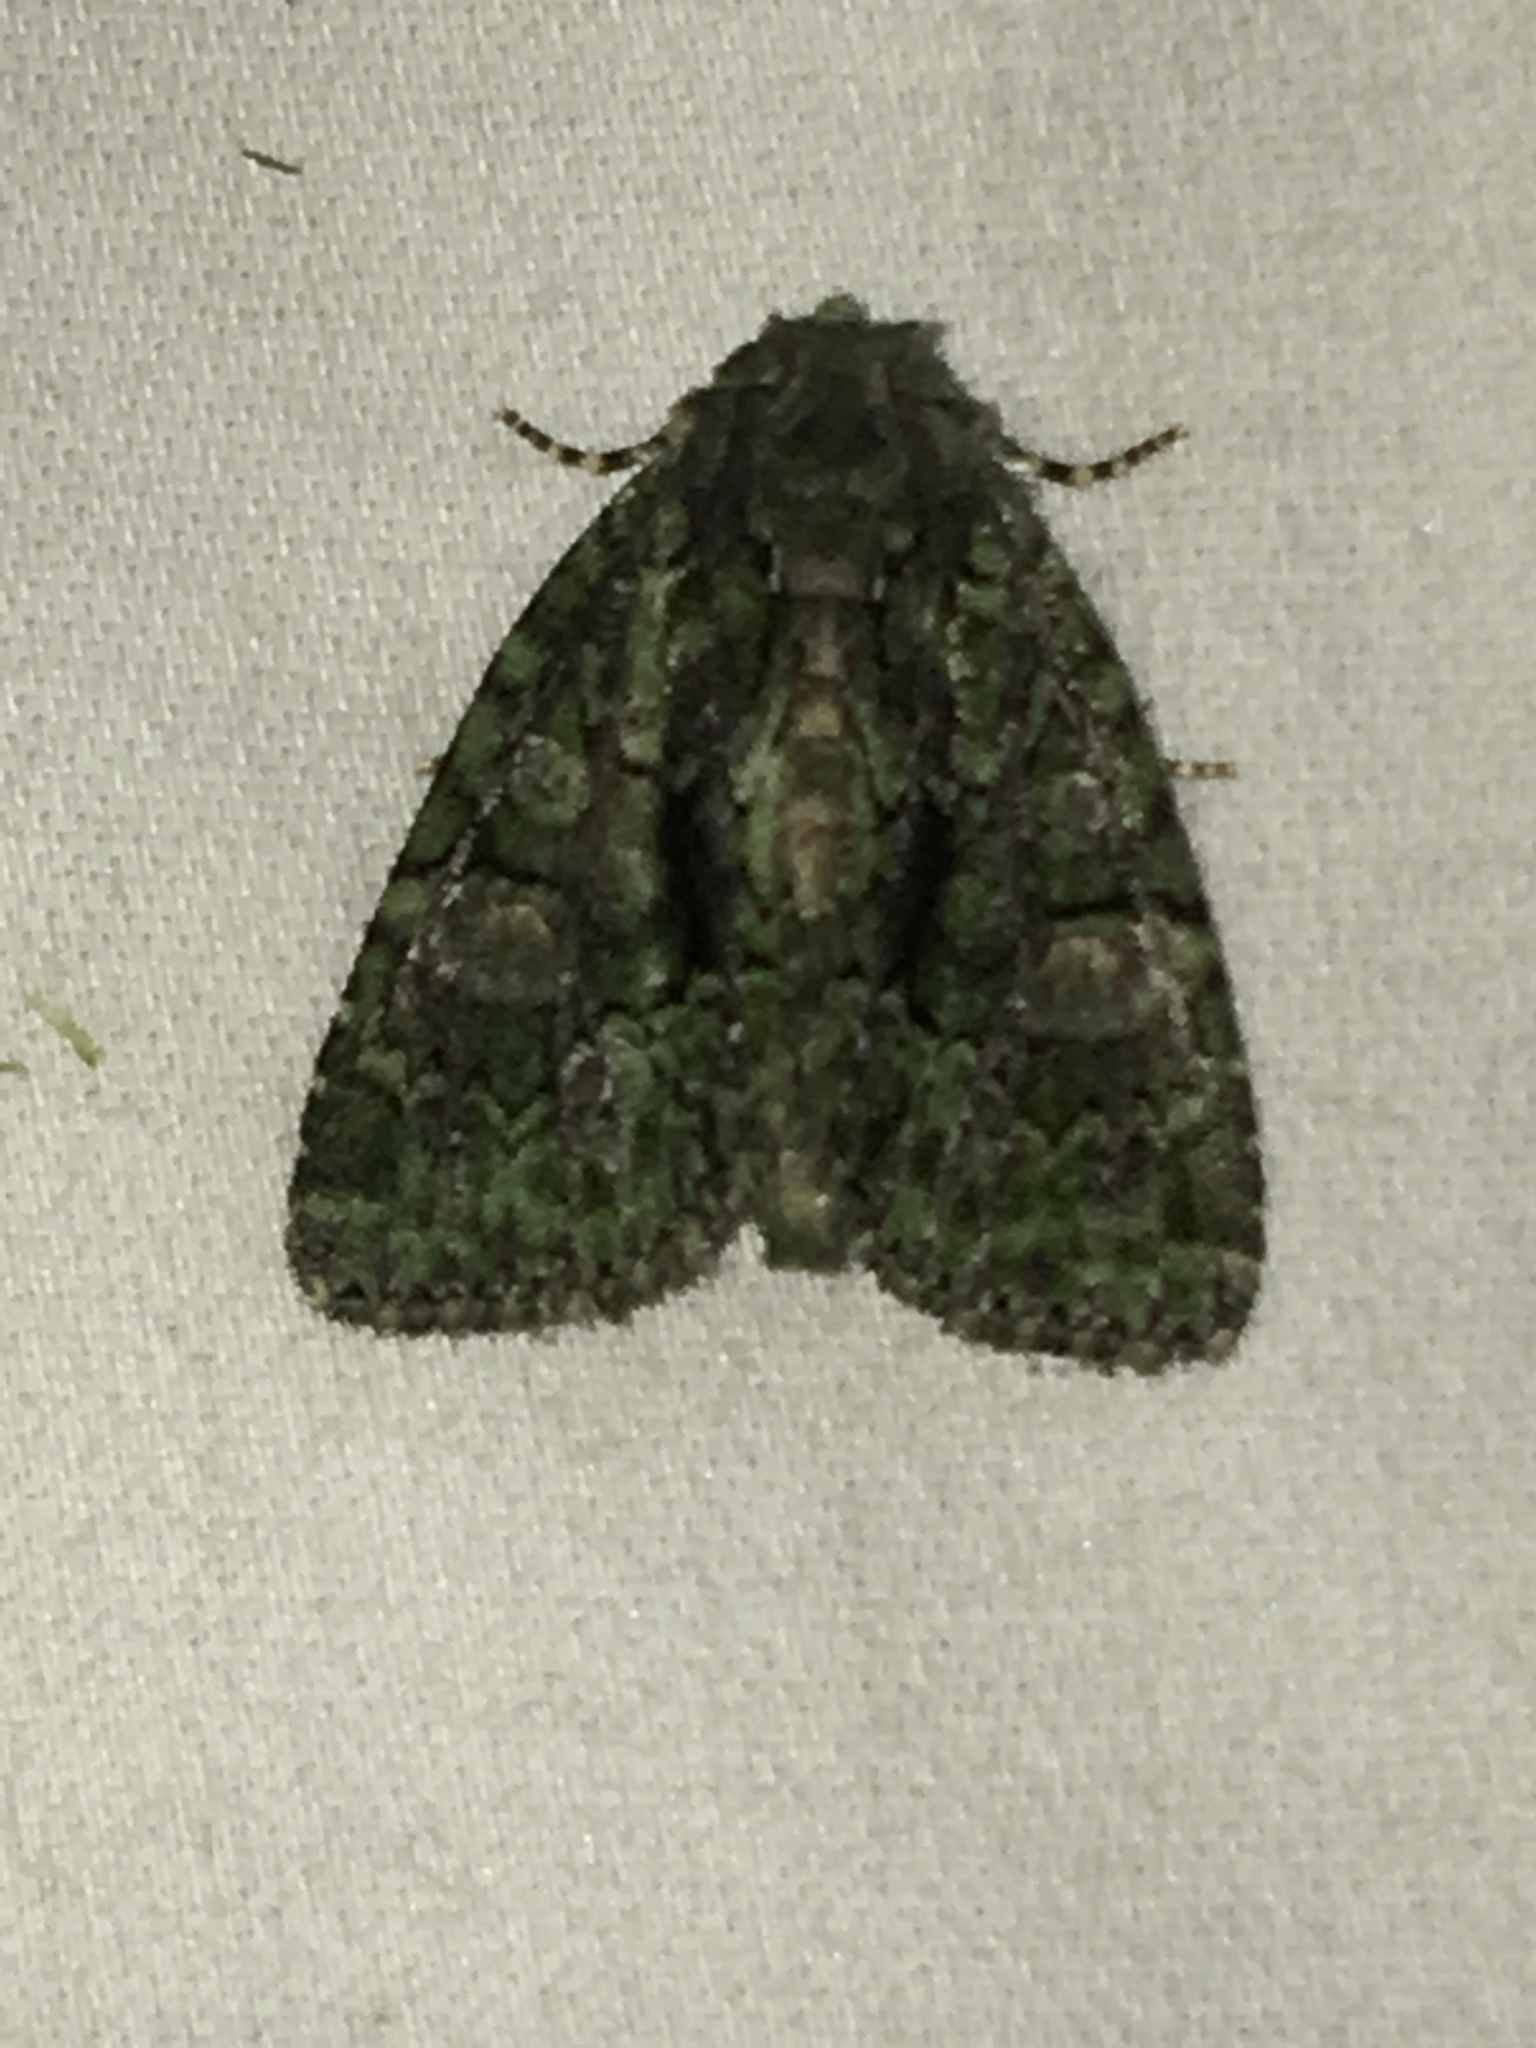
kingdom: Animalia
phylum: Arthropoda
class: Insecta
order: Lepidoptera
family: Noctuidae
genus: Phosphila
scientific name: Phosphila miselioides
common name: Spotted phosphila moth
